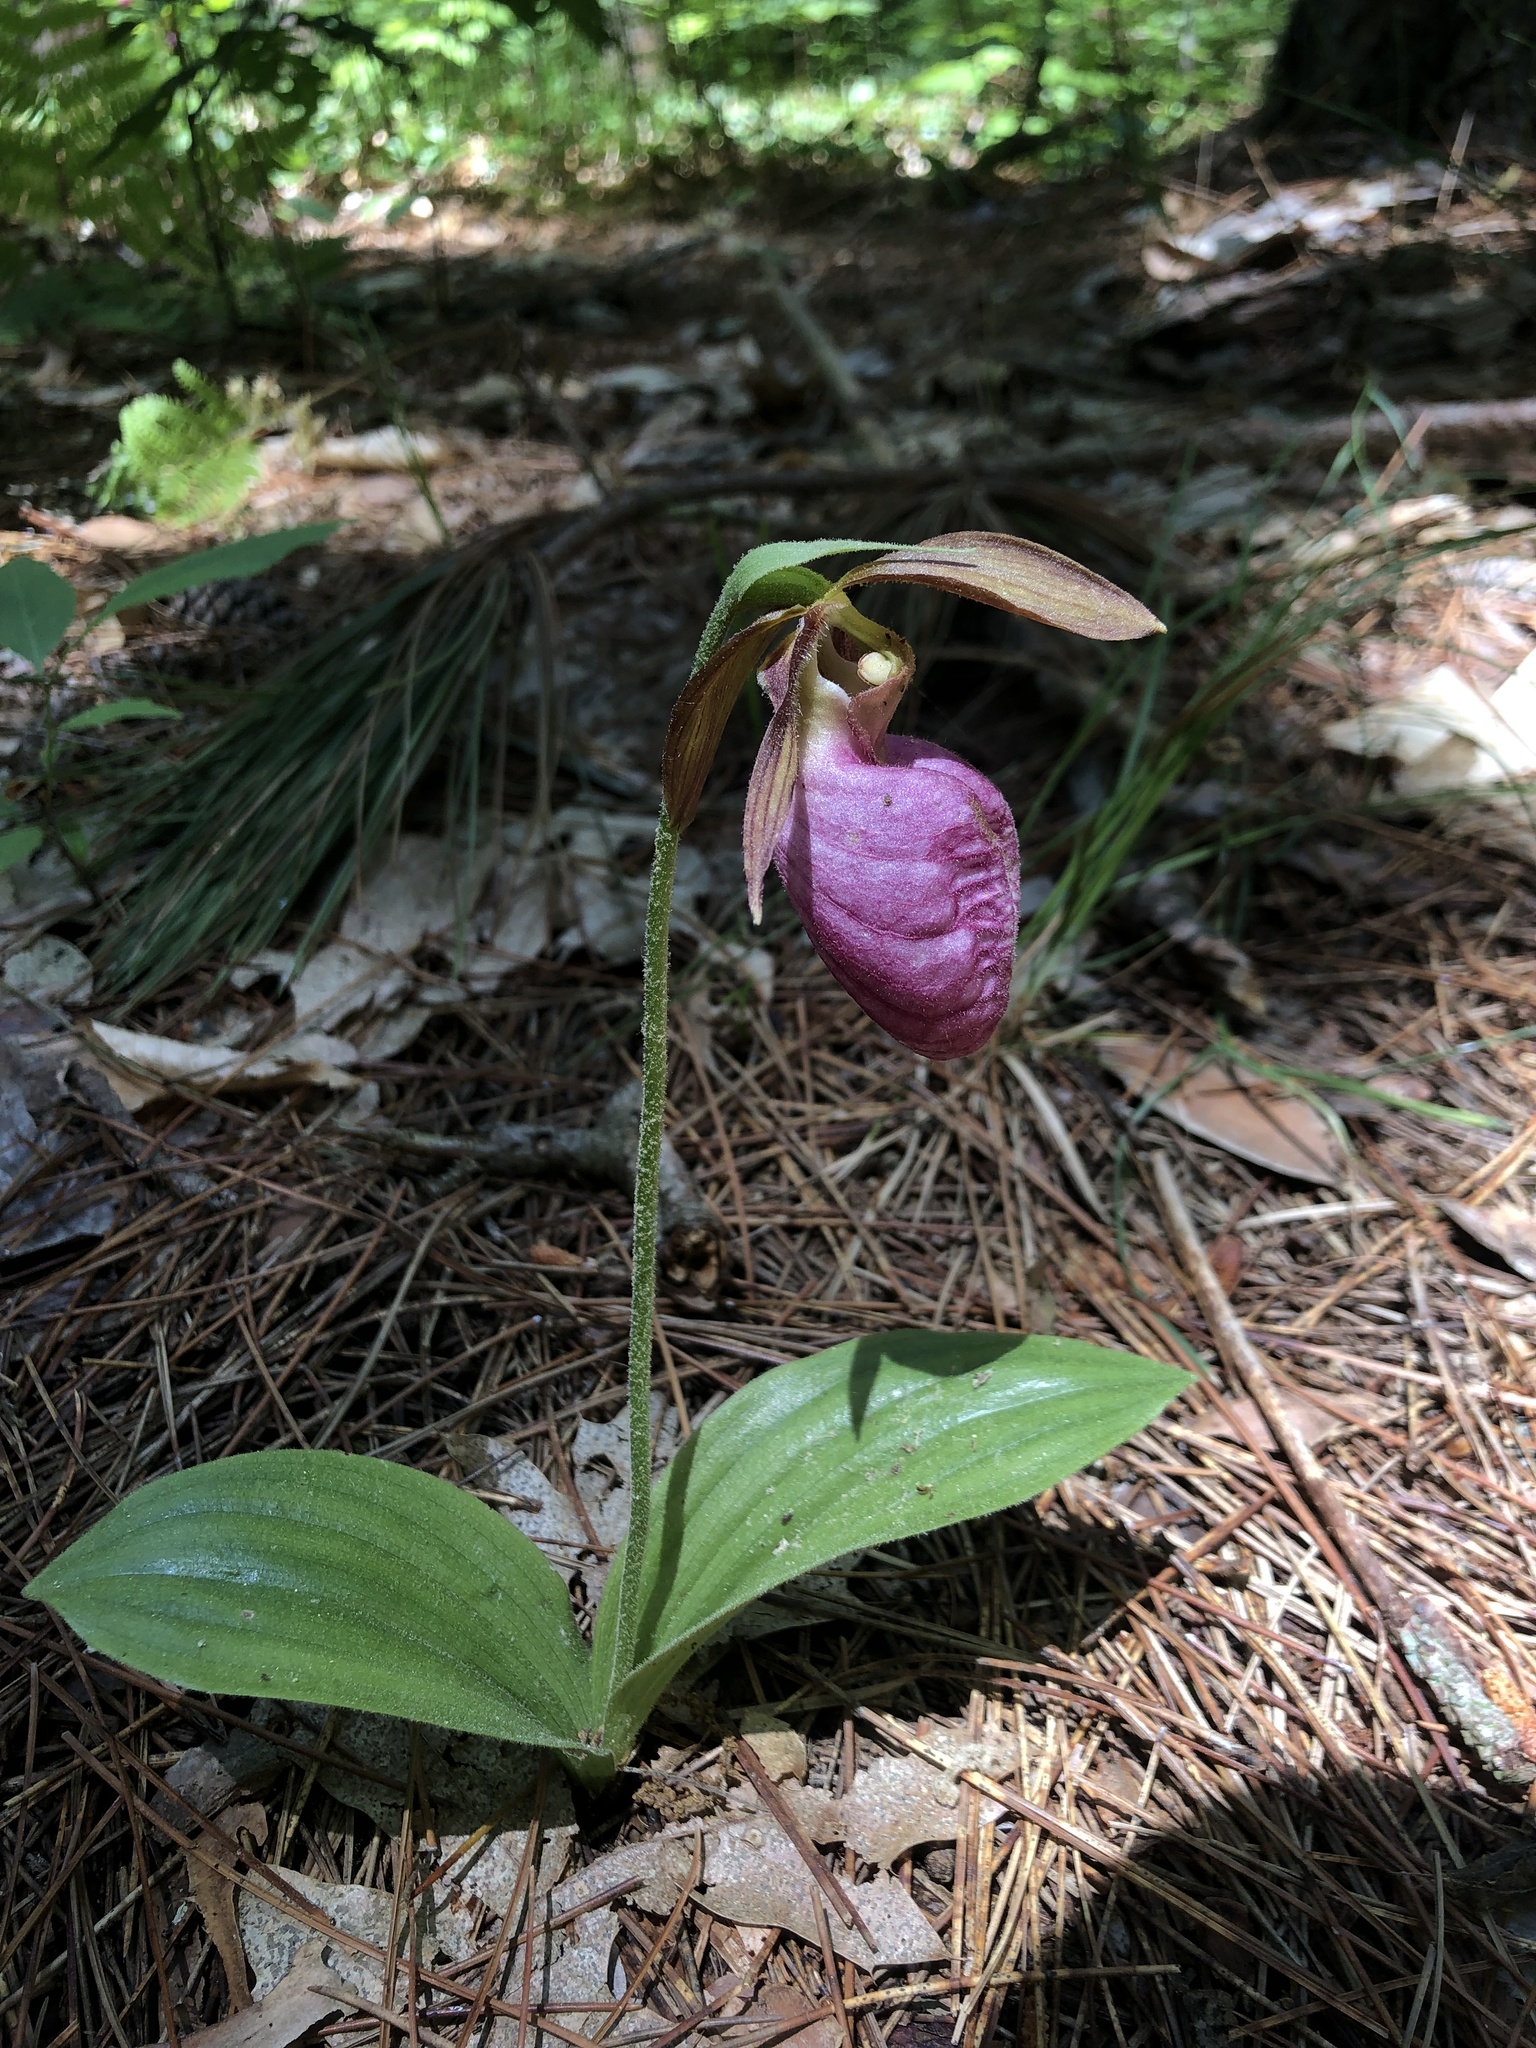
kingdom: Plantae
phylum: Tracheophyta
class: Liliopsida
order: Asparagales
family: Orchidaceae
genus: Cypripedium
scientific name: Cypripedium acaule
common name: Pink lady's-slipper
